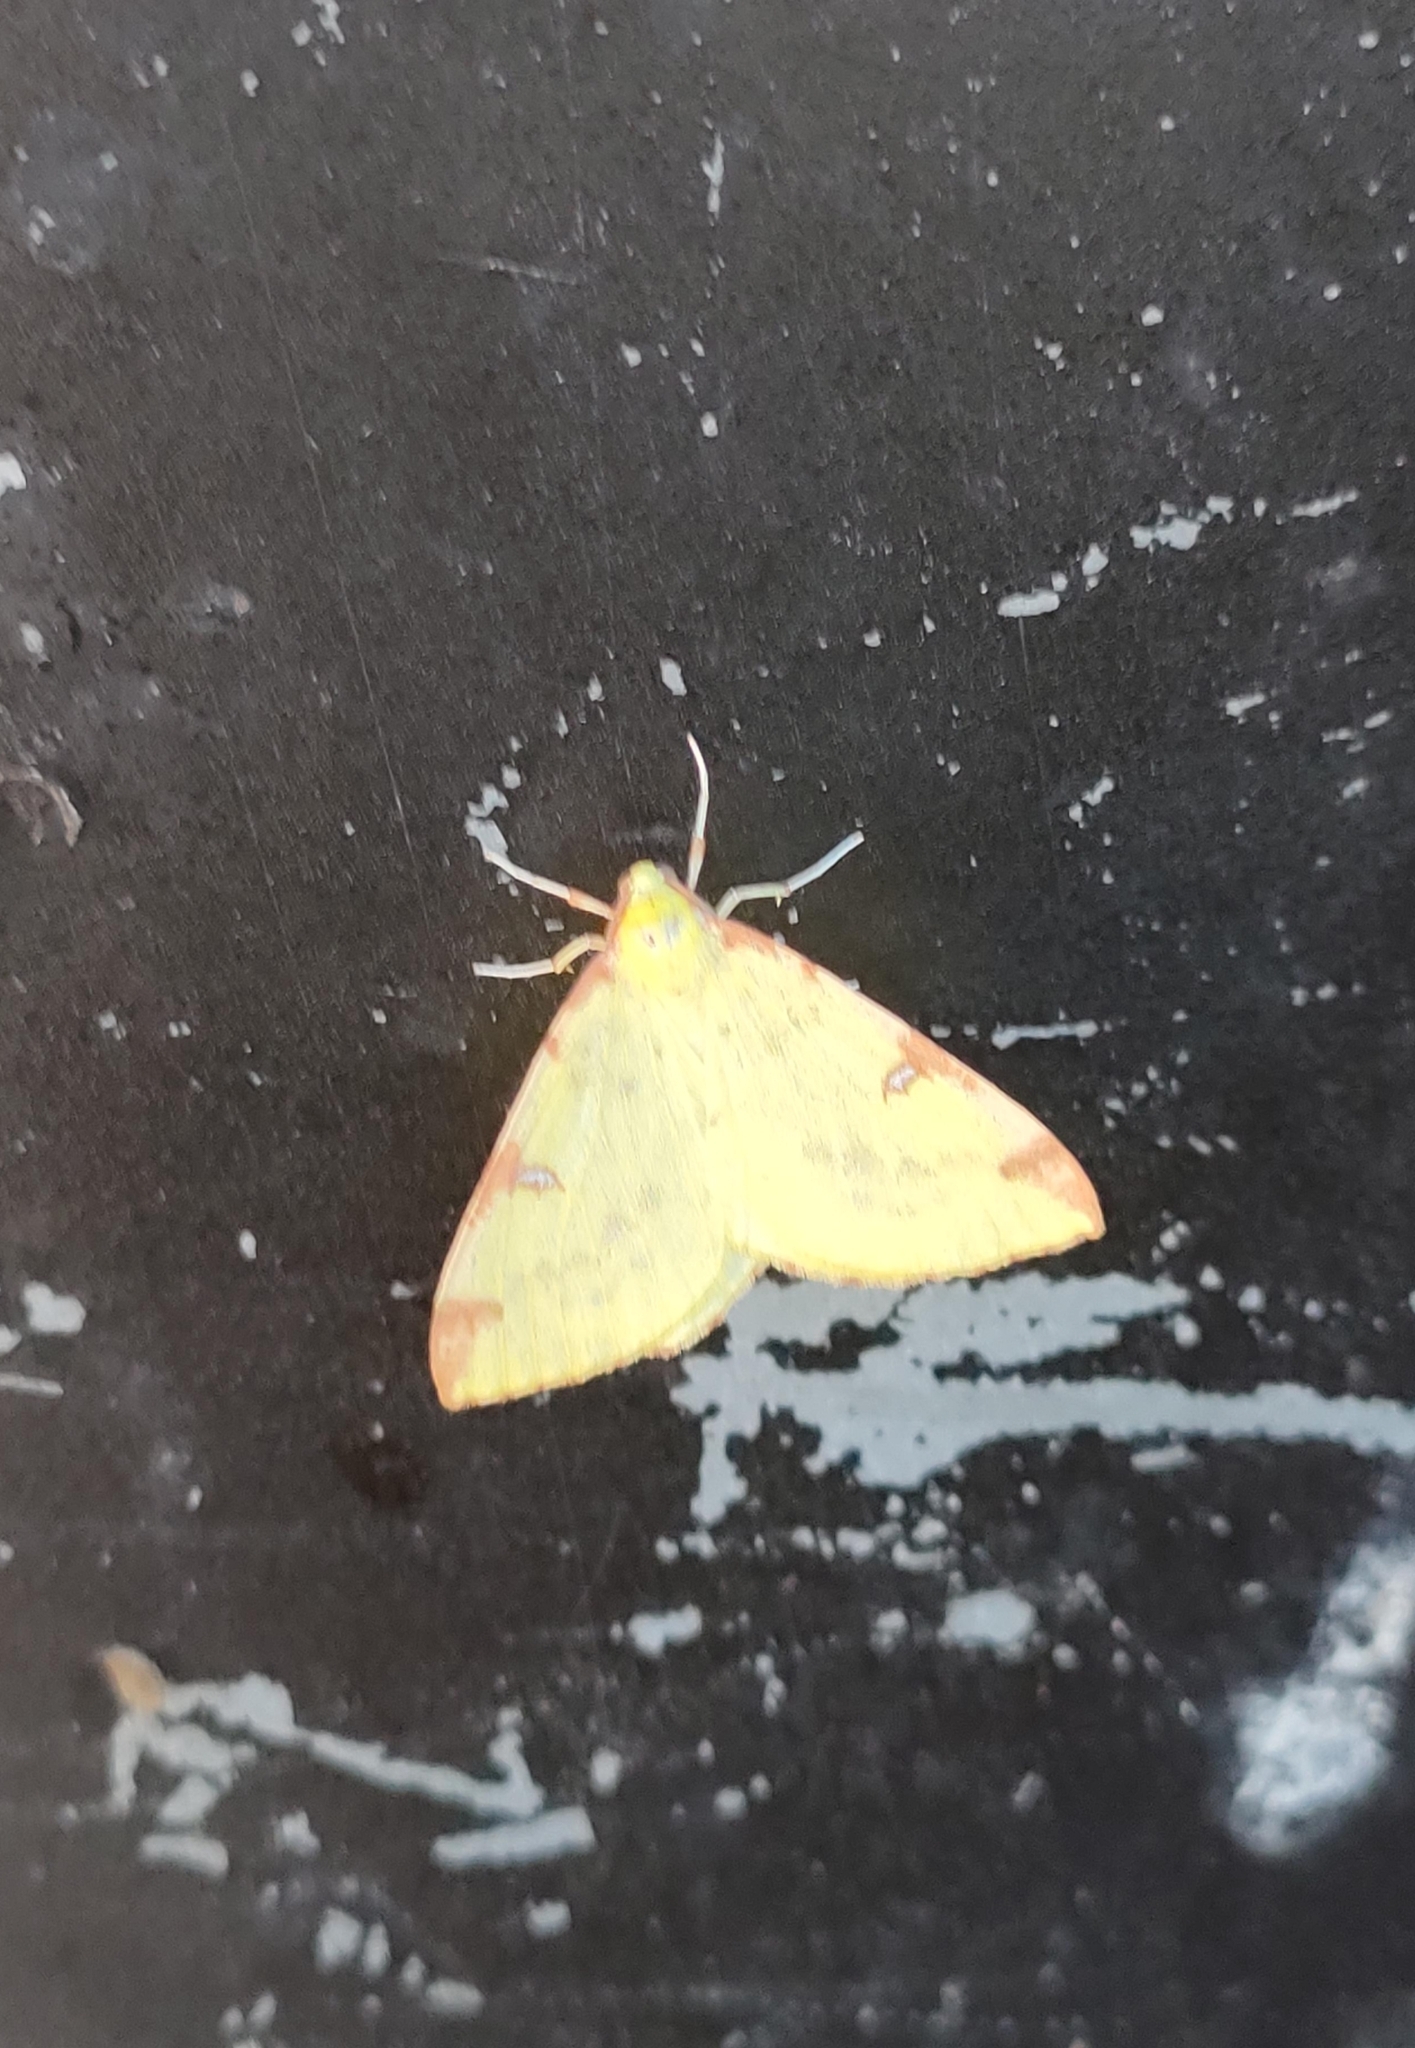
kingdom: Animalia
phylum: Arthropoda
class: Insecta
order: Lepidoptera
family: Geometridae
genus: Opisthograptis
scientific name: Opisthograptis luteolata
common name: Brimstone moth
